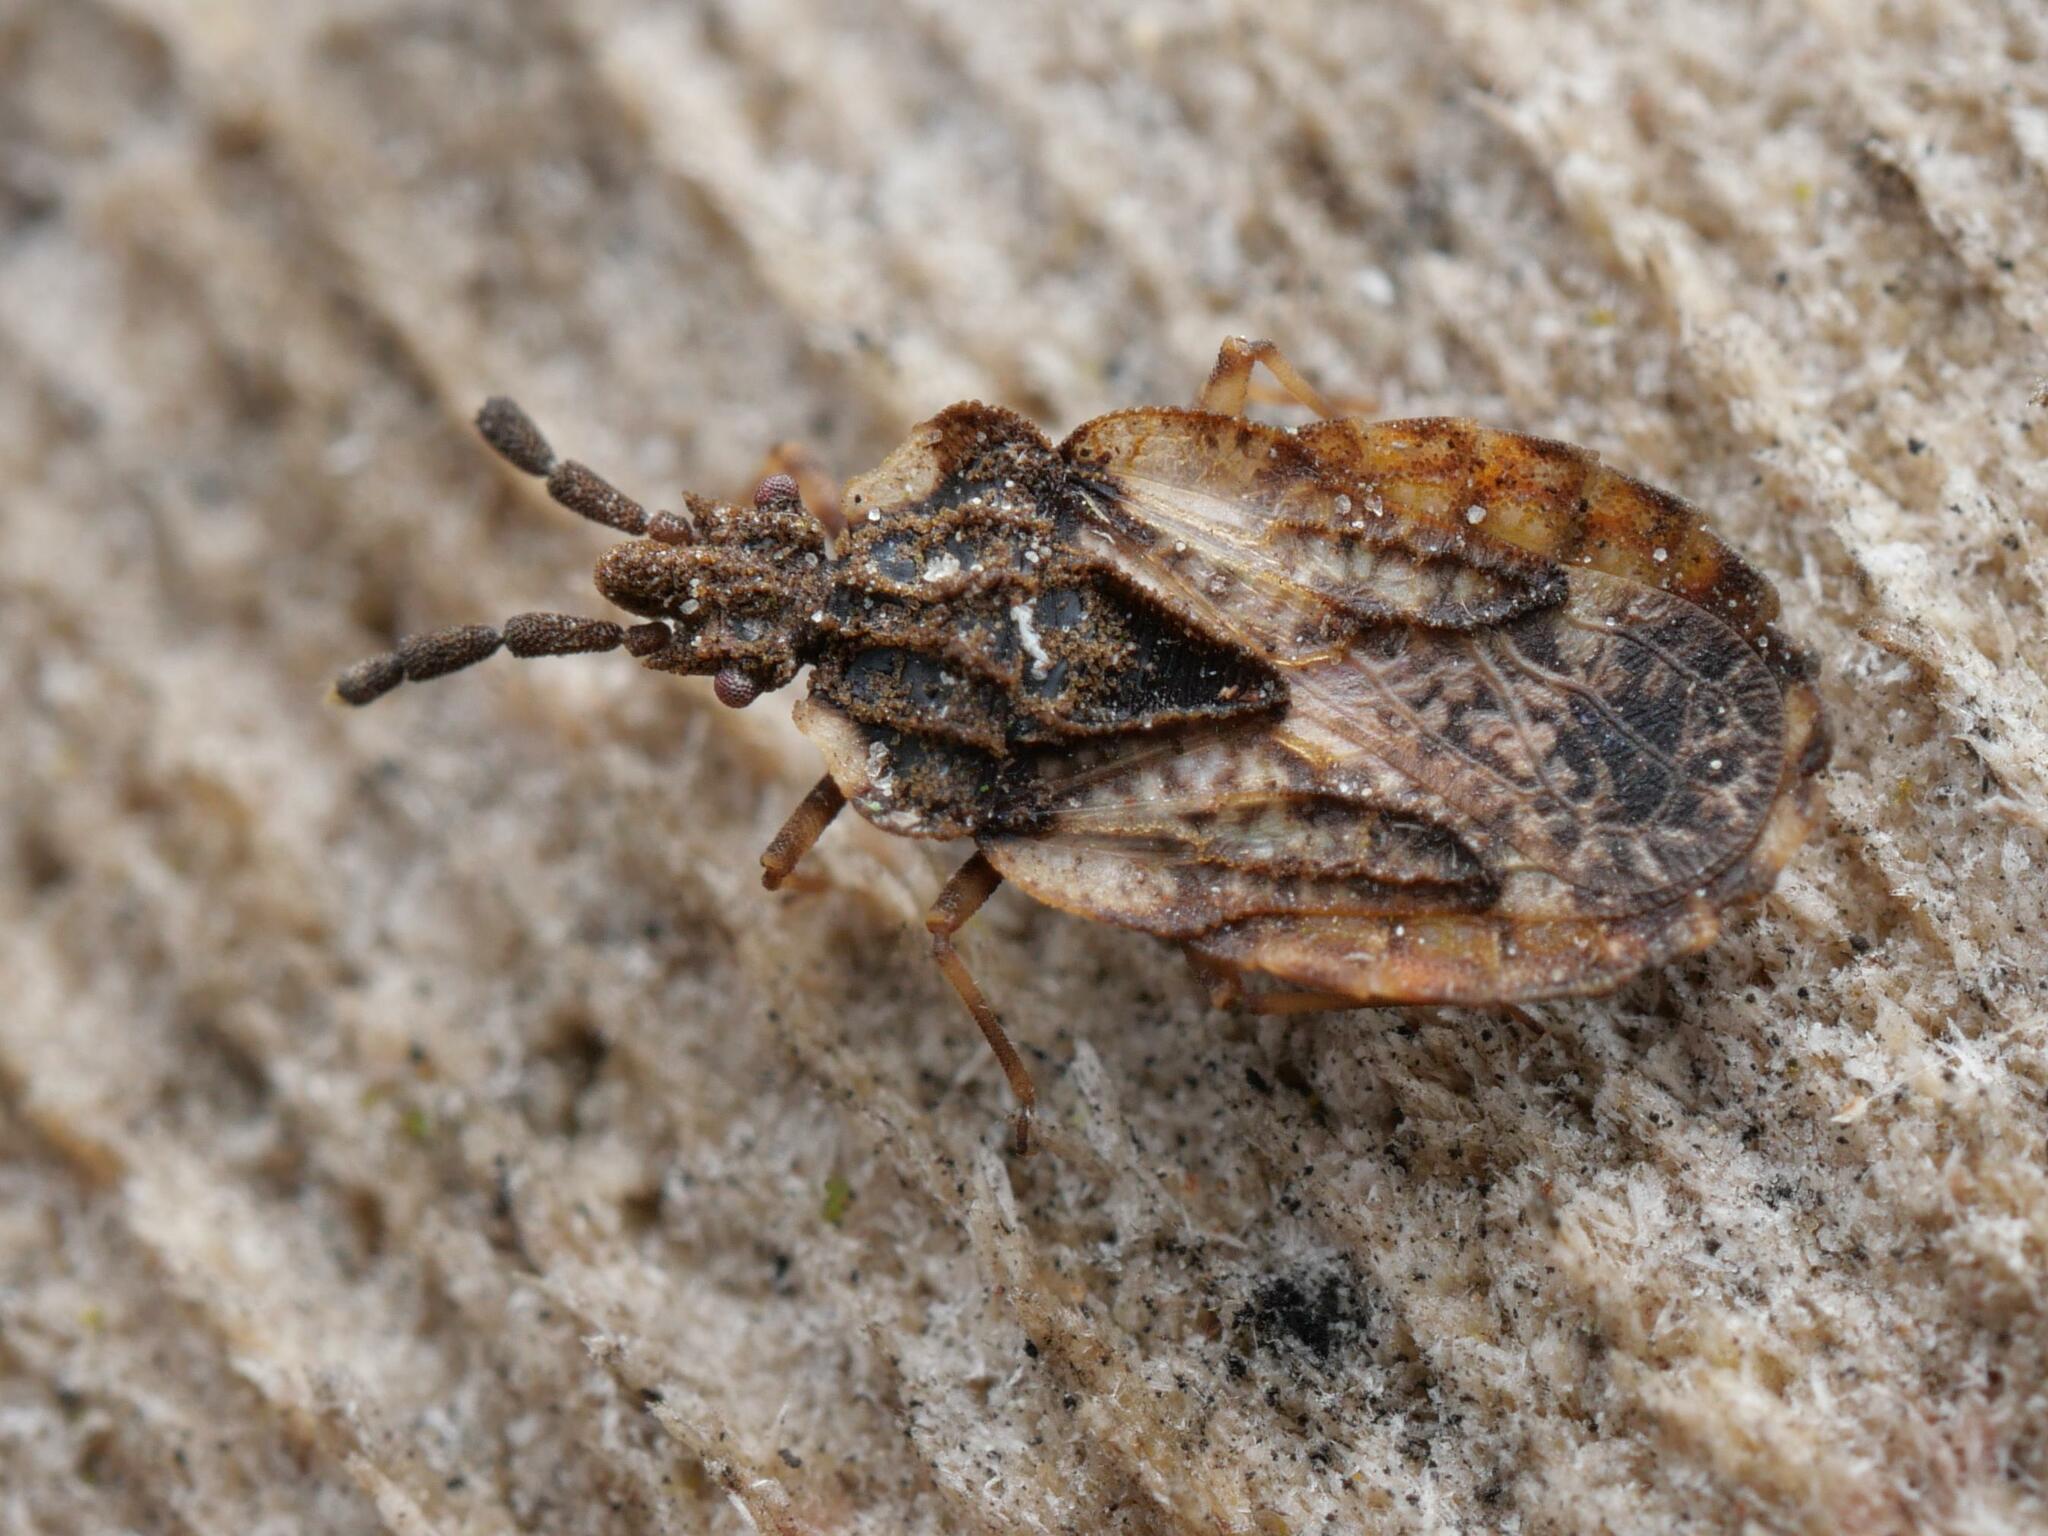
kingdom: Animalia
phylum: Arthropoda
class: Insecta
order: Hemiptera
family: Aradidae
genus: Aradus
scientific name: Aradus depressus
